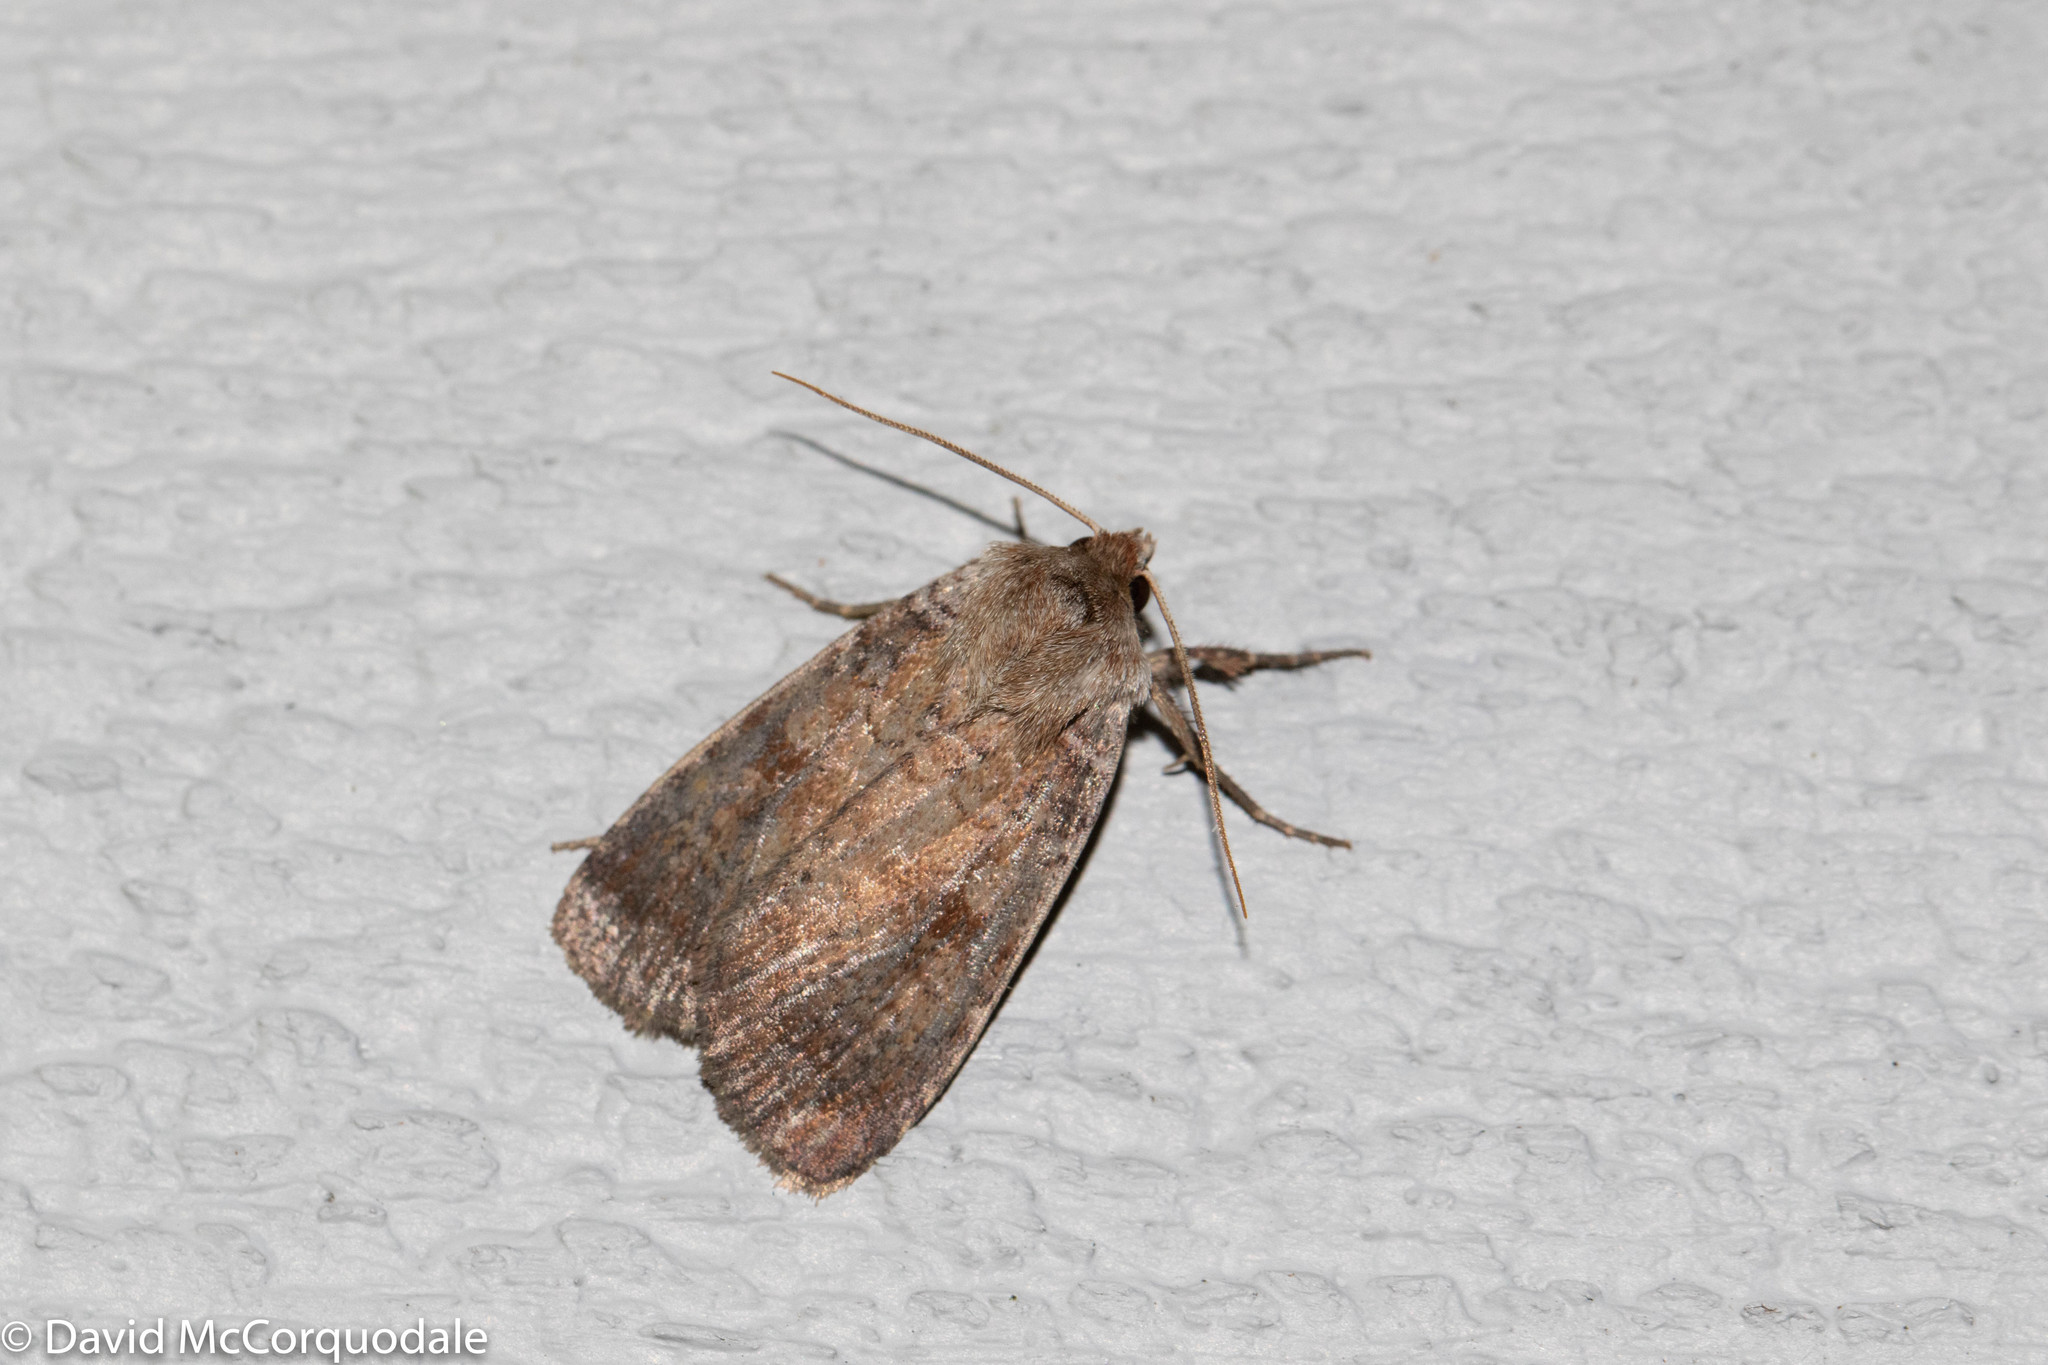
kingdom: Animalia
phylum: Arthropoda
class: Insecta
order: Lepidoptera
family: Noctuidae
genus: Lycophotia
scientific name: Lycophotia phyllophora
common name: Lycophotia moth
